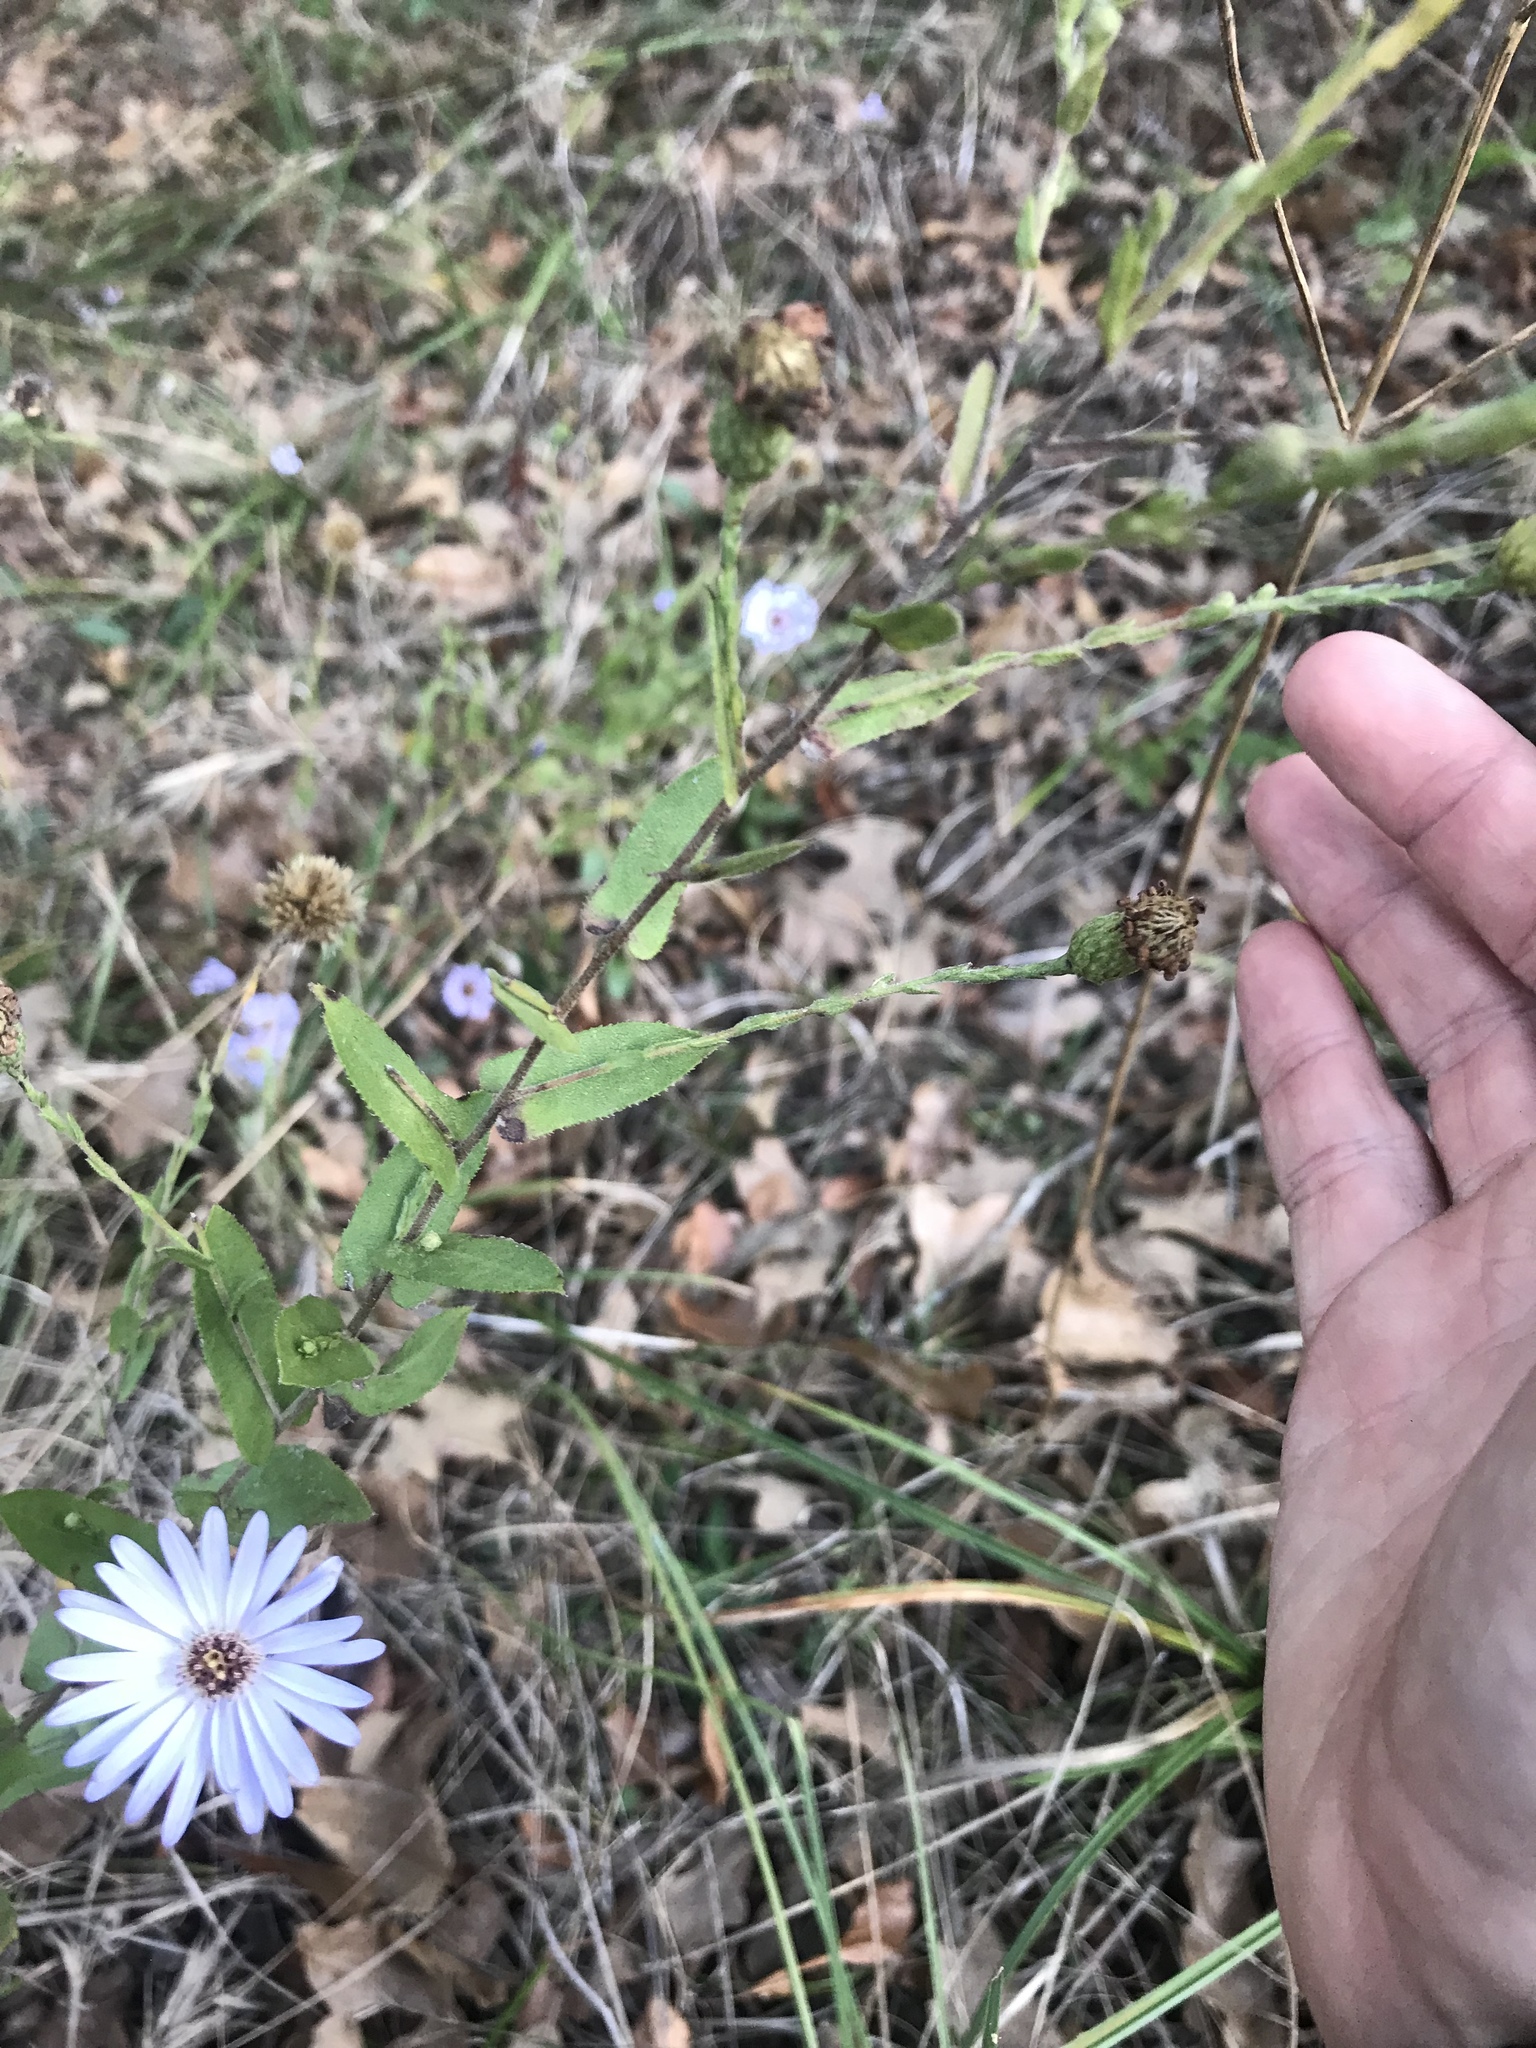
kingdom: Plantae
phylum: Tracheophyta
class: Magnoliopsida
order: Asterales
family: Asteraceae
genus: Symphyotrichum
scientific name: Symphyotrichum patens
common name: Late purple aster
